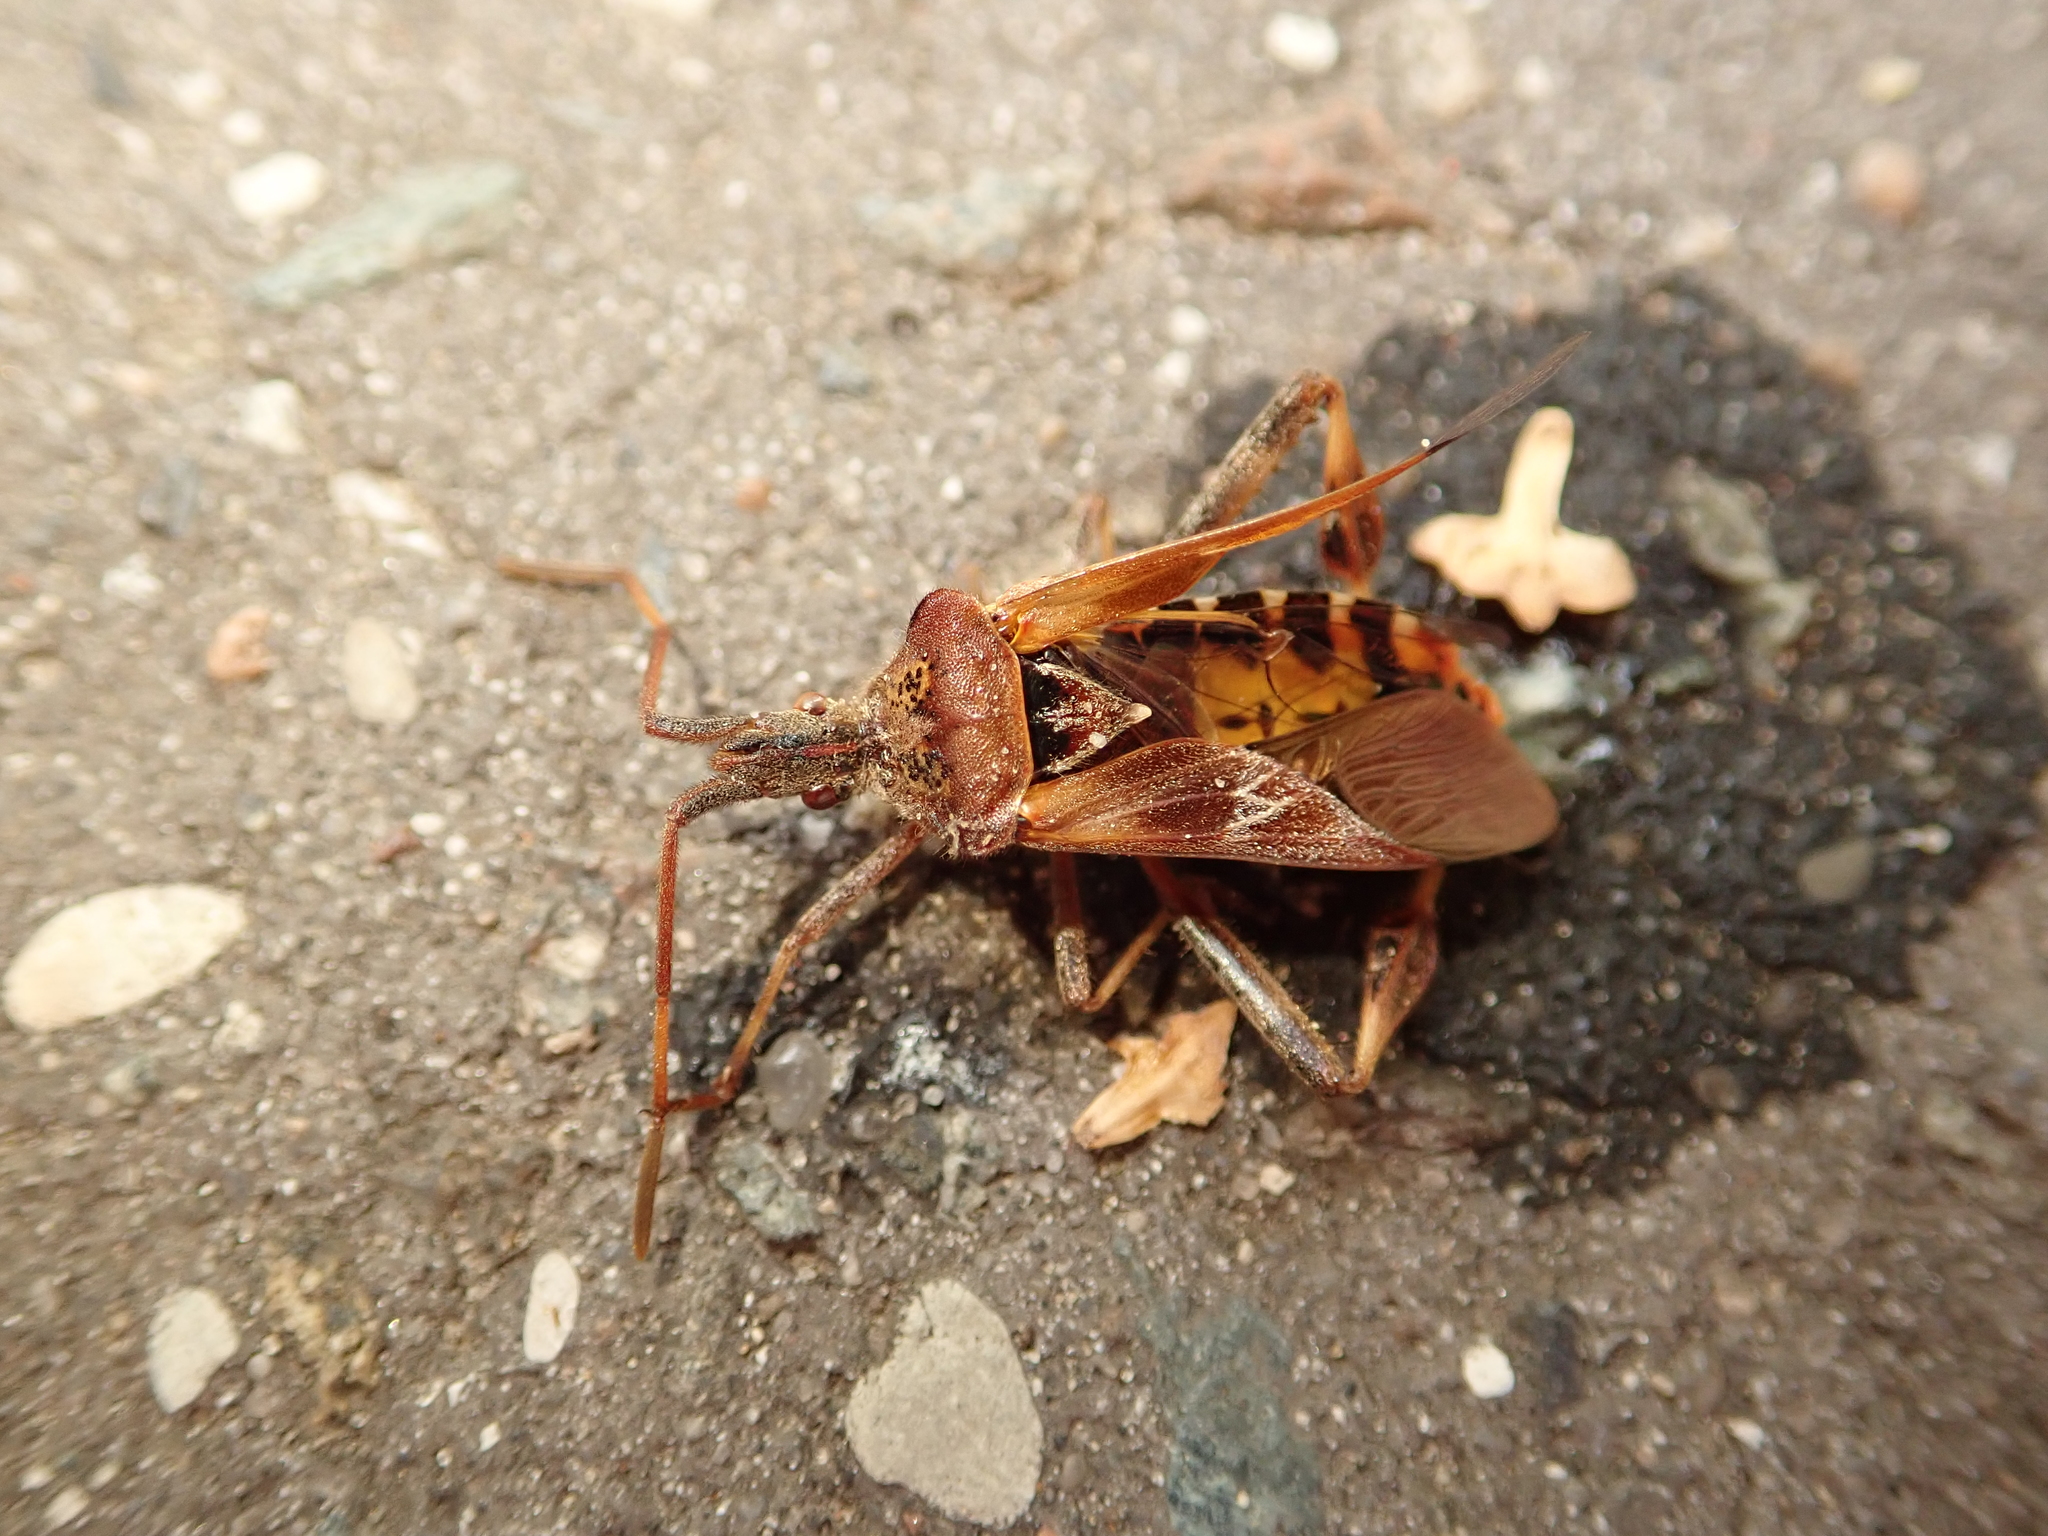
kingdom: Animalia
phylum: Arthropoda
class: Insecta
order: Hemiptera
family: Coreidae
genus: Leptoglossus
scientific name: Leptoglossus occidentalis
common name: Western conifer-seed bug
